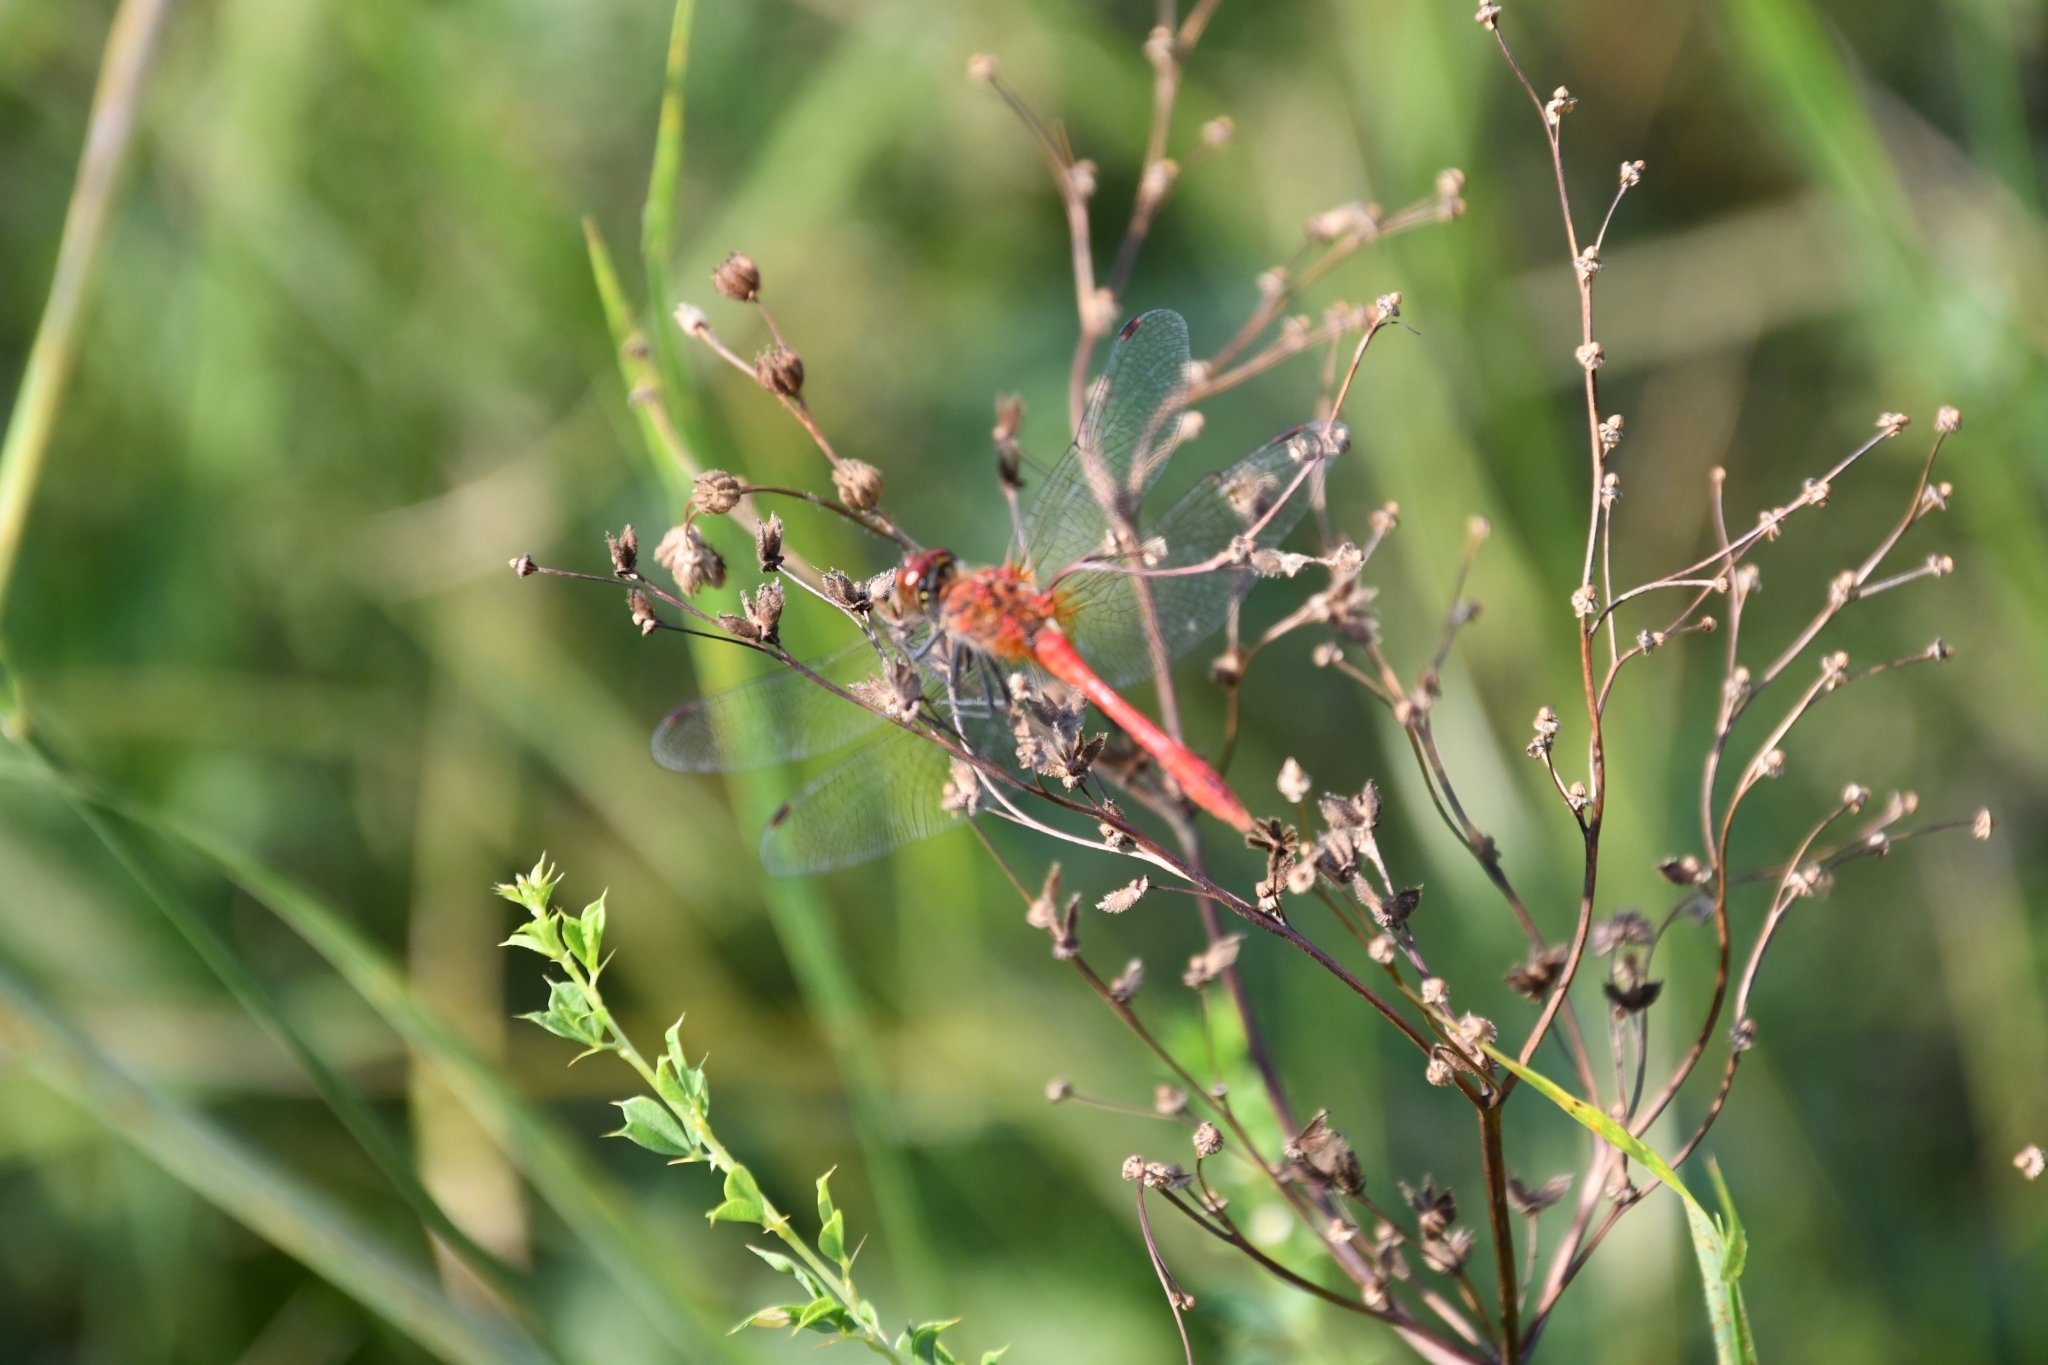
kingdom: Animalia
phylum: Arthropoda
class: Insecta
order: Odonata
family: Libellulidae
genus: Sympetrum
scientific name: Sympetrum sanguineum
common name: Ruddy darter
